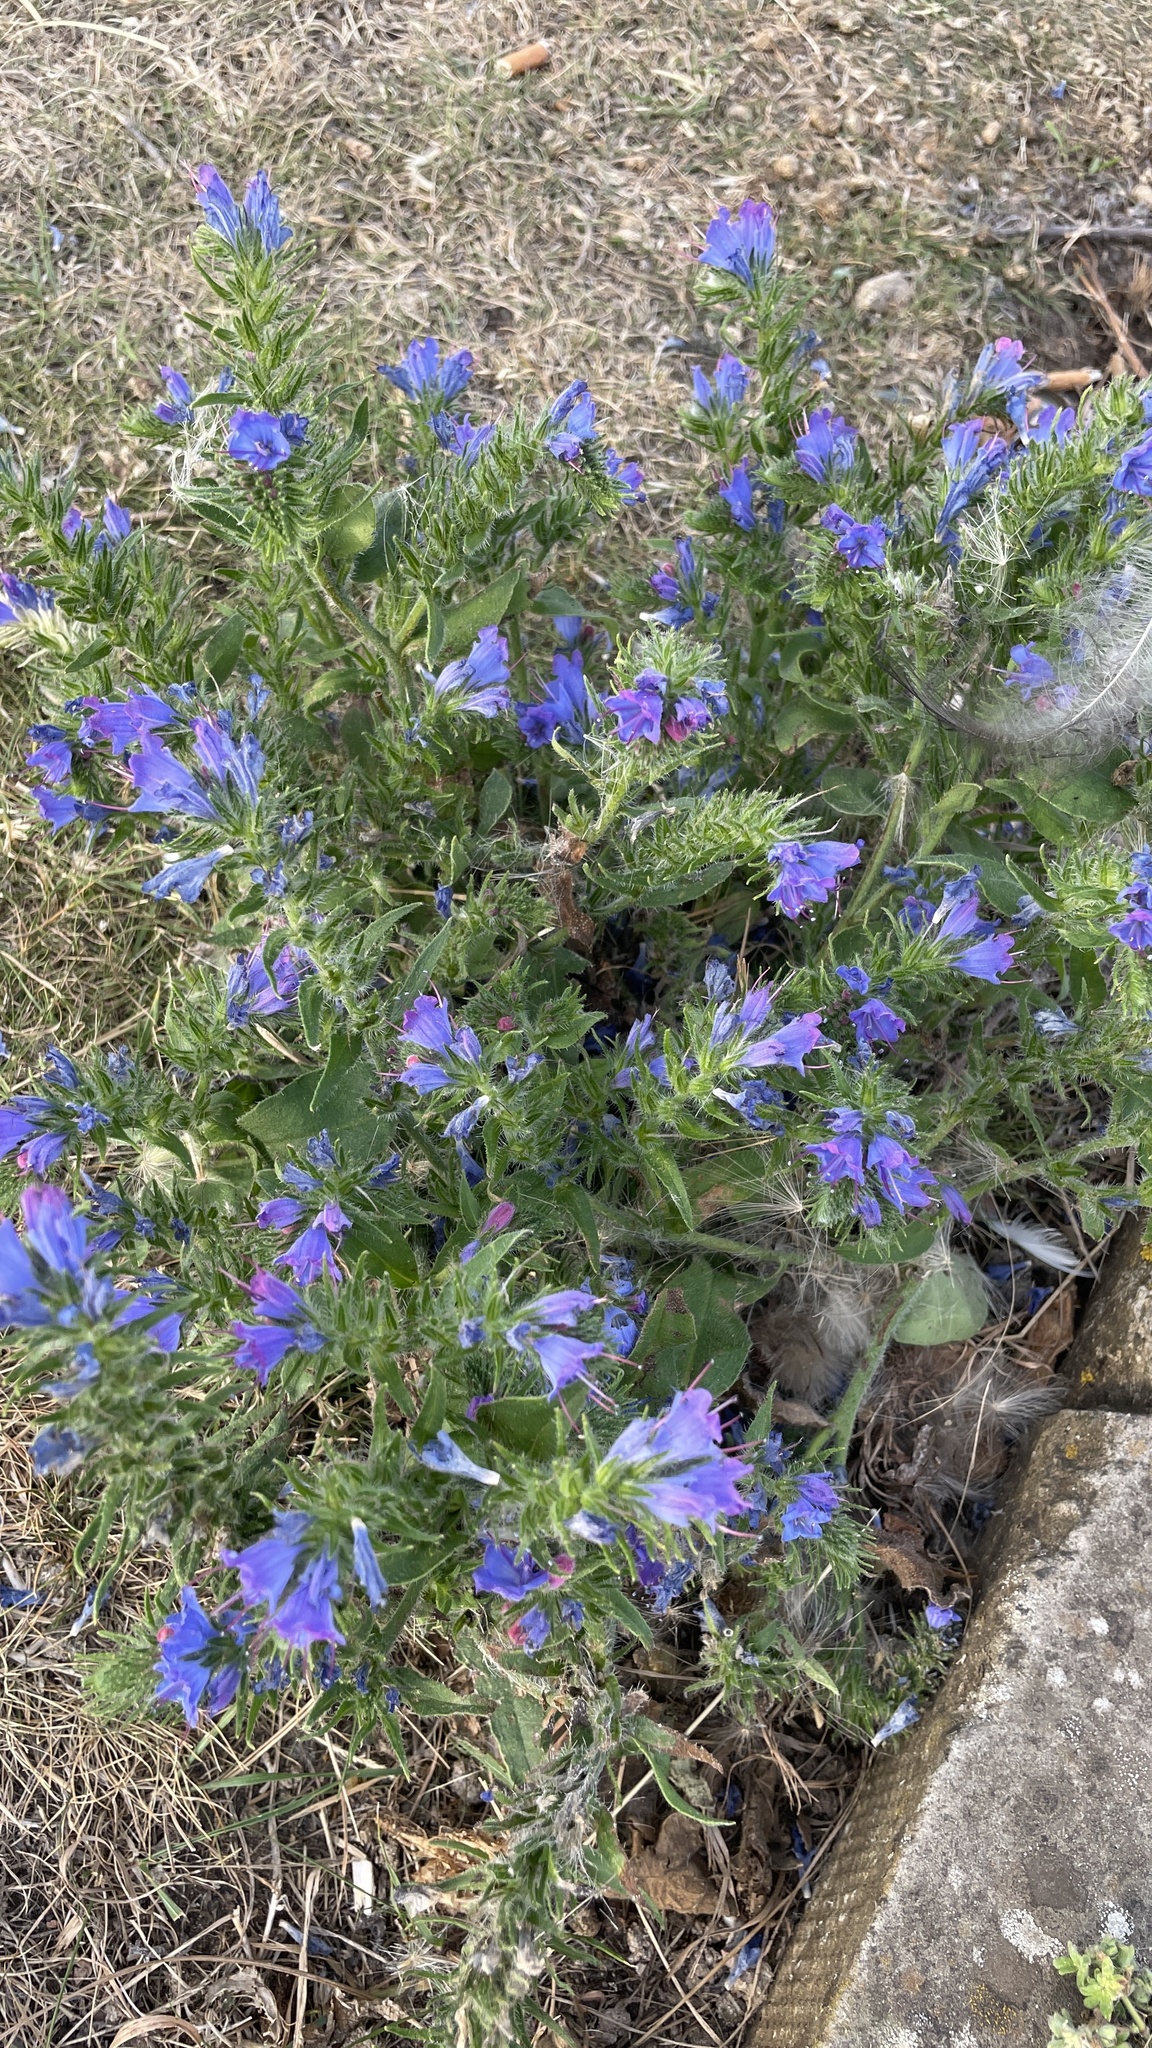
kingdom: Plantae
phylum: Tracheophyta
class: Magnoliopsida
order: Boraginales
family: Boraginaceae
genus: Echium
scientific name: Echium vulgare
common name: Common viper's bugloss
